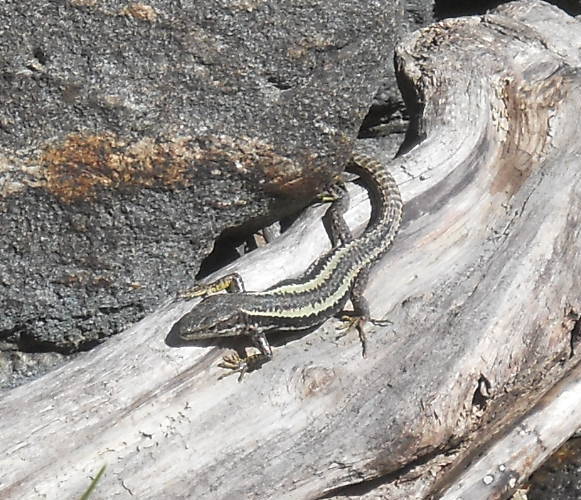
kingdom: Animalia
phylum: Chordata
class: Squamata
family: Lacertidae
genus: Darevskia
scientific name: Darevskia daghestanica
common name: Dagestan lizard
